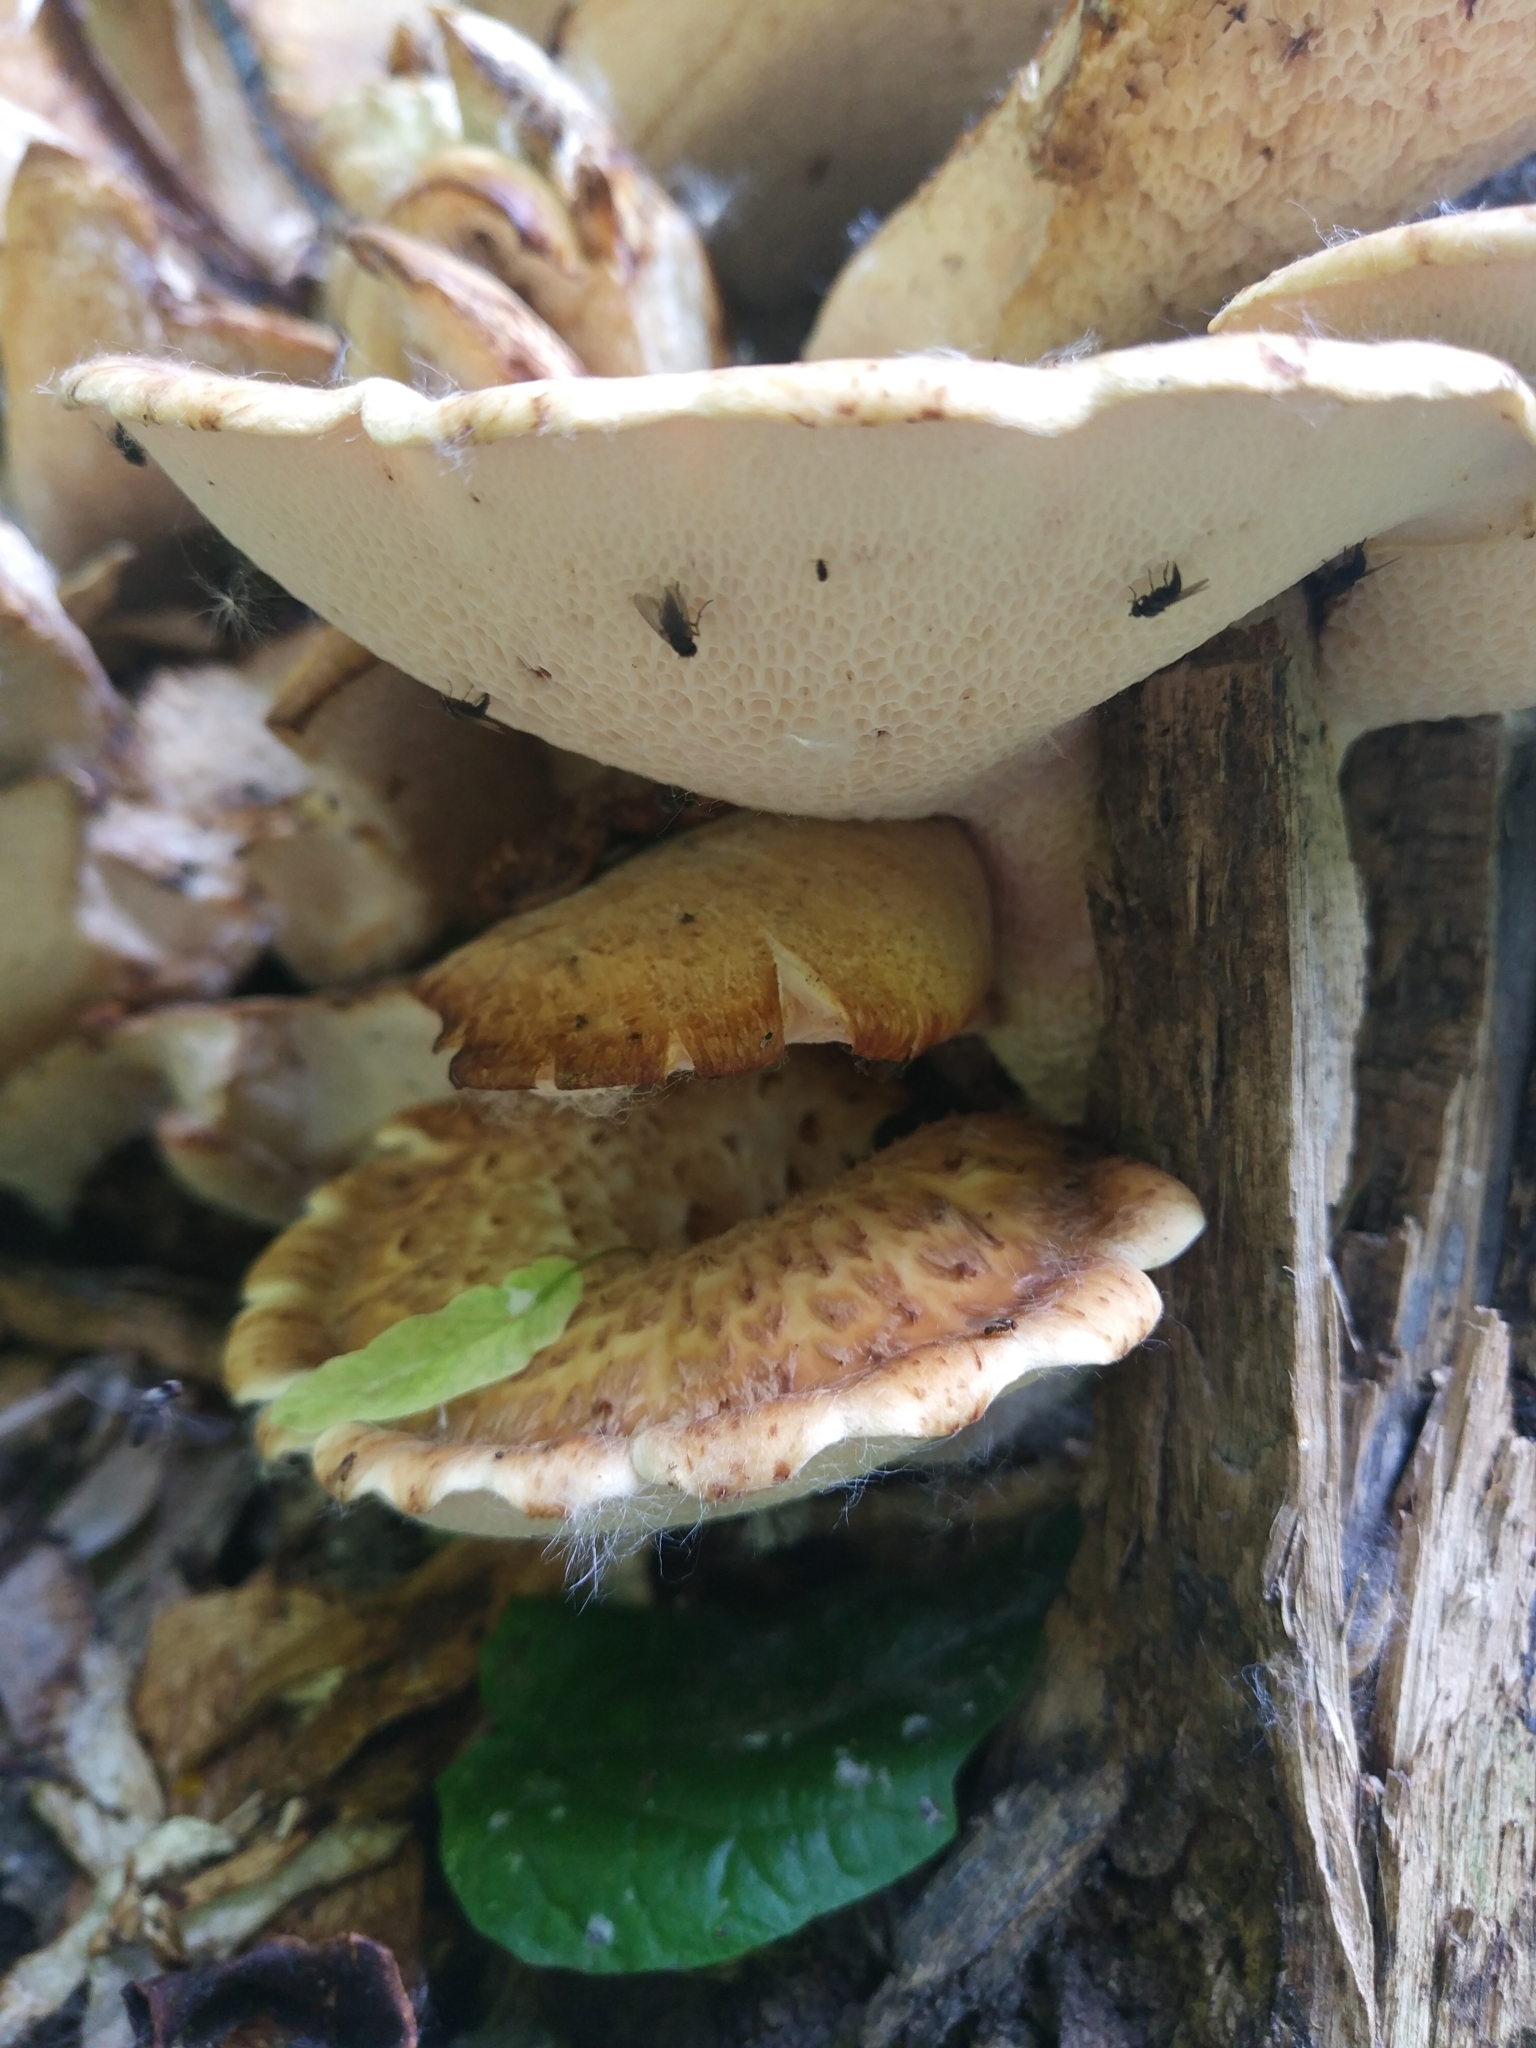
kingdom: Fungi
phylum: Basidiomycota
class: Agaricomycetes
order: Polyporales
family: Polyporaceae
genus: Cerioporus
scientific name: Cerioporus squamosus
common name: Dryad's saddle
